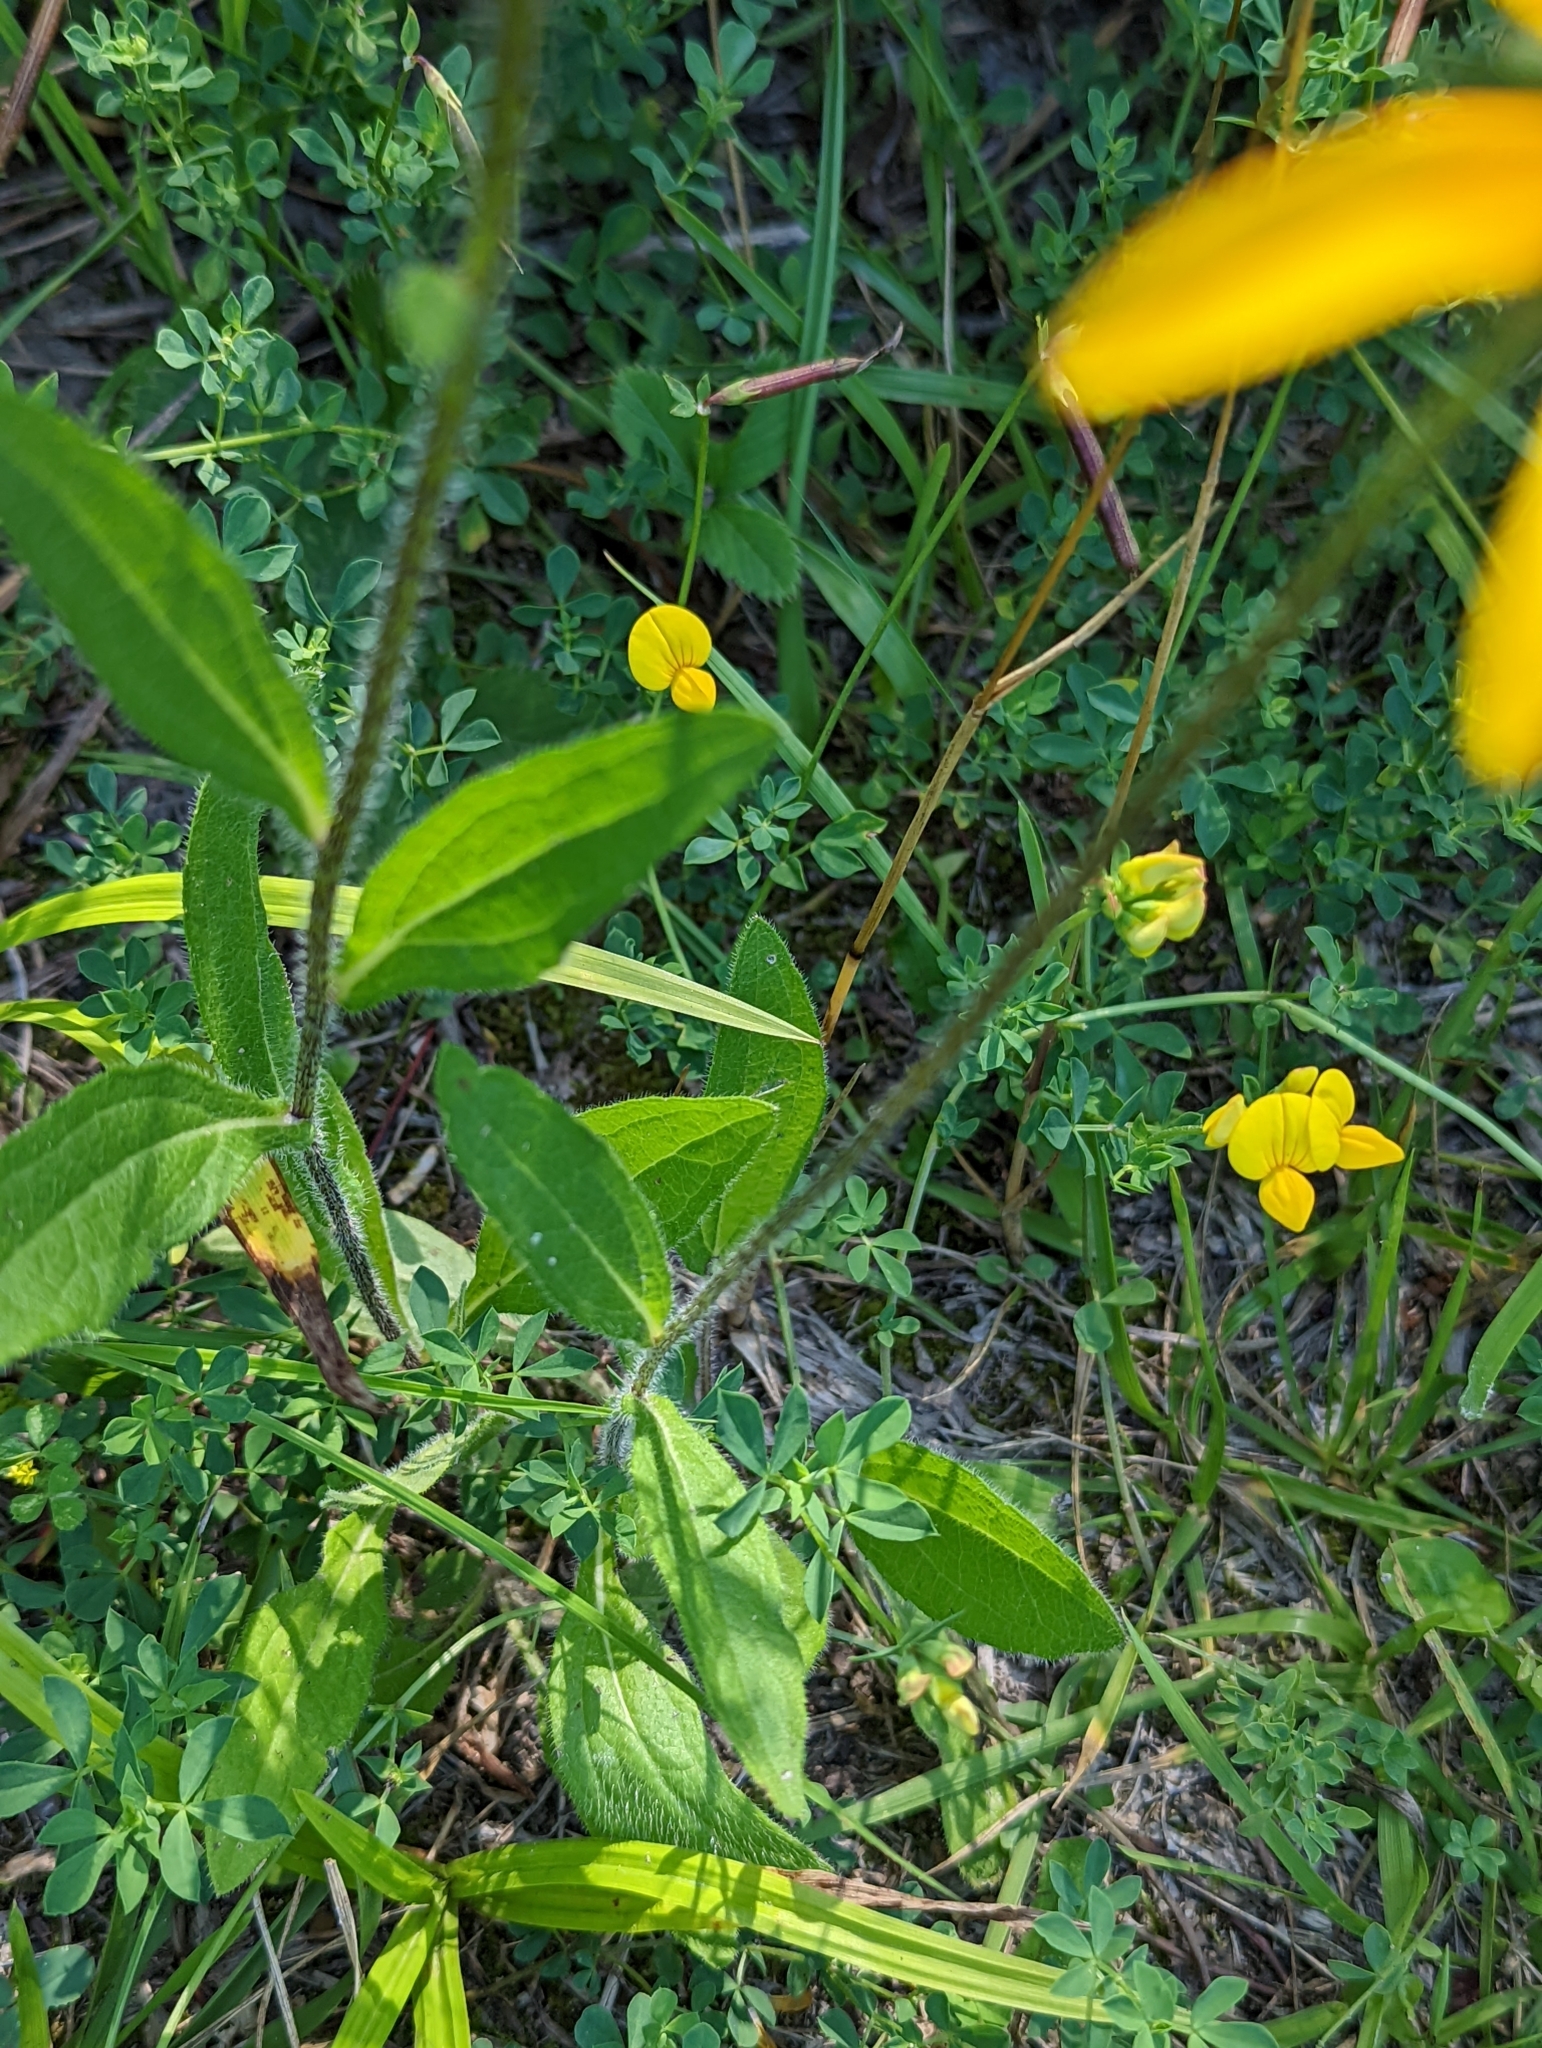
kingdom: Plantae
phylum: Tracheophyta
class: Magnoliopsida
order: Asterales
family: Asteraceae
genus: Rudbeckia
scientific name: Rudbeckia hirta
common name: Black-eyed-susan
